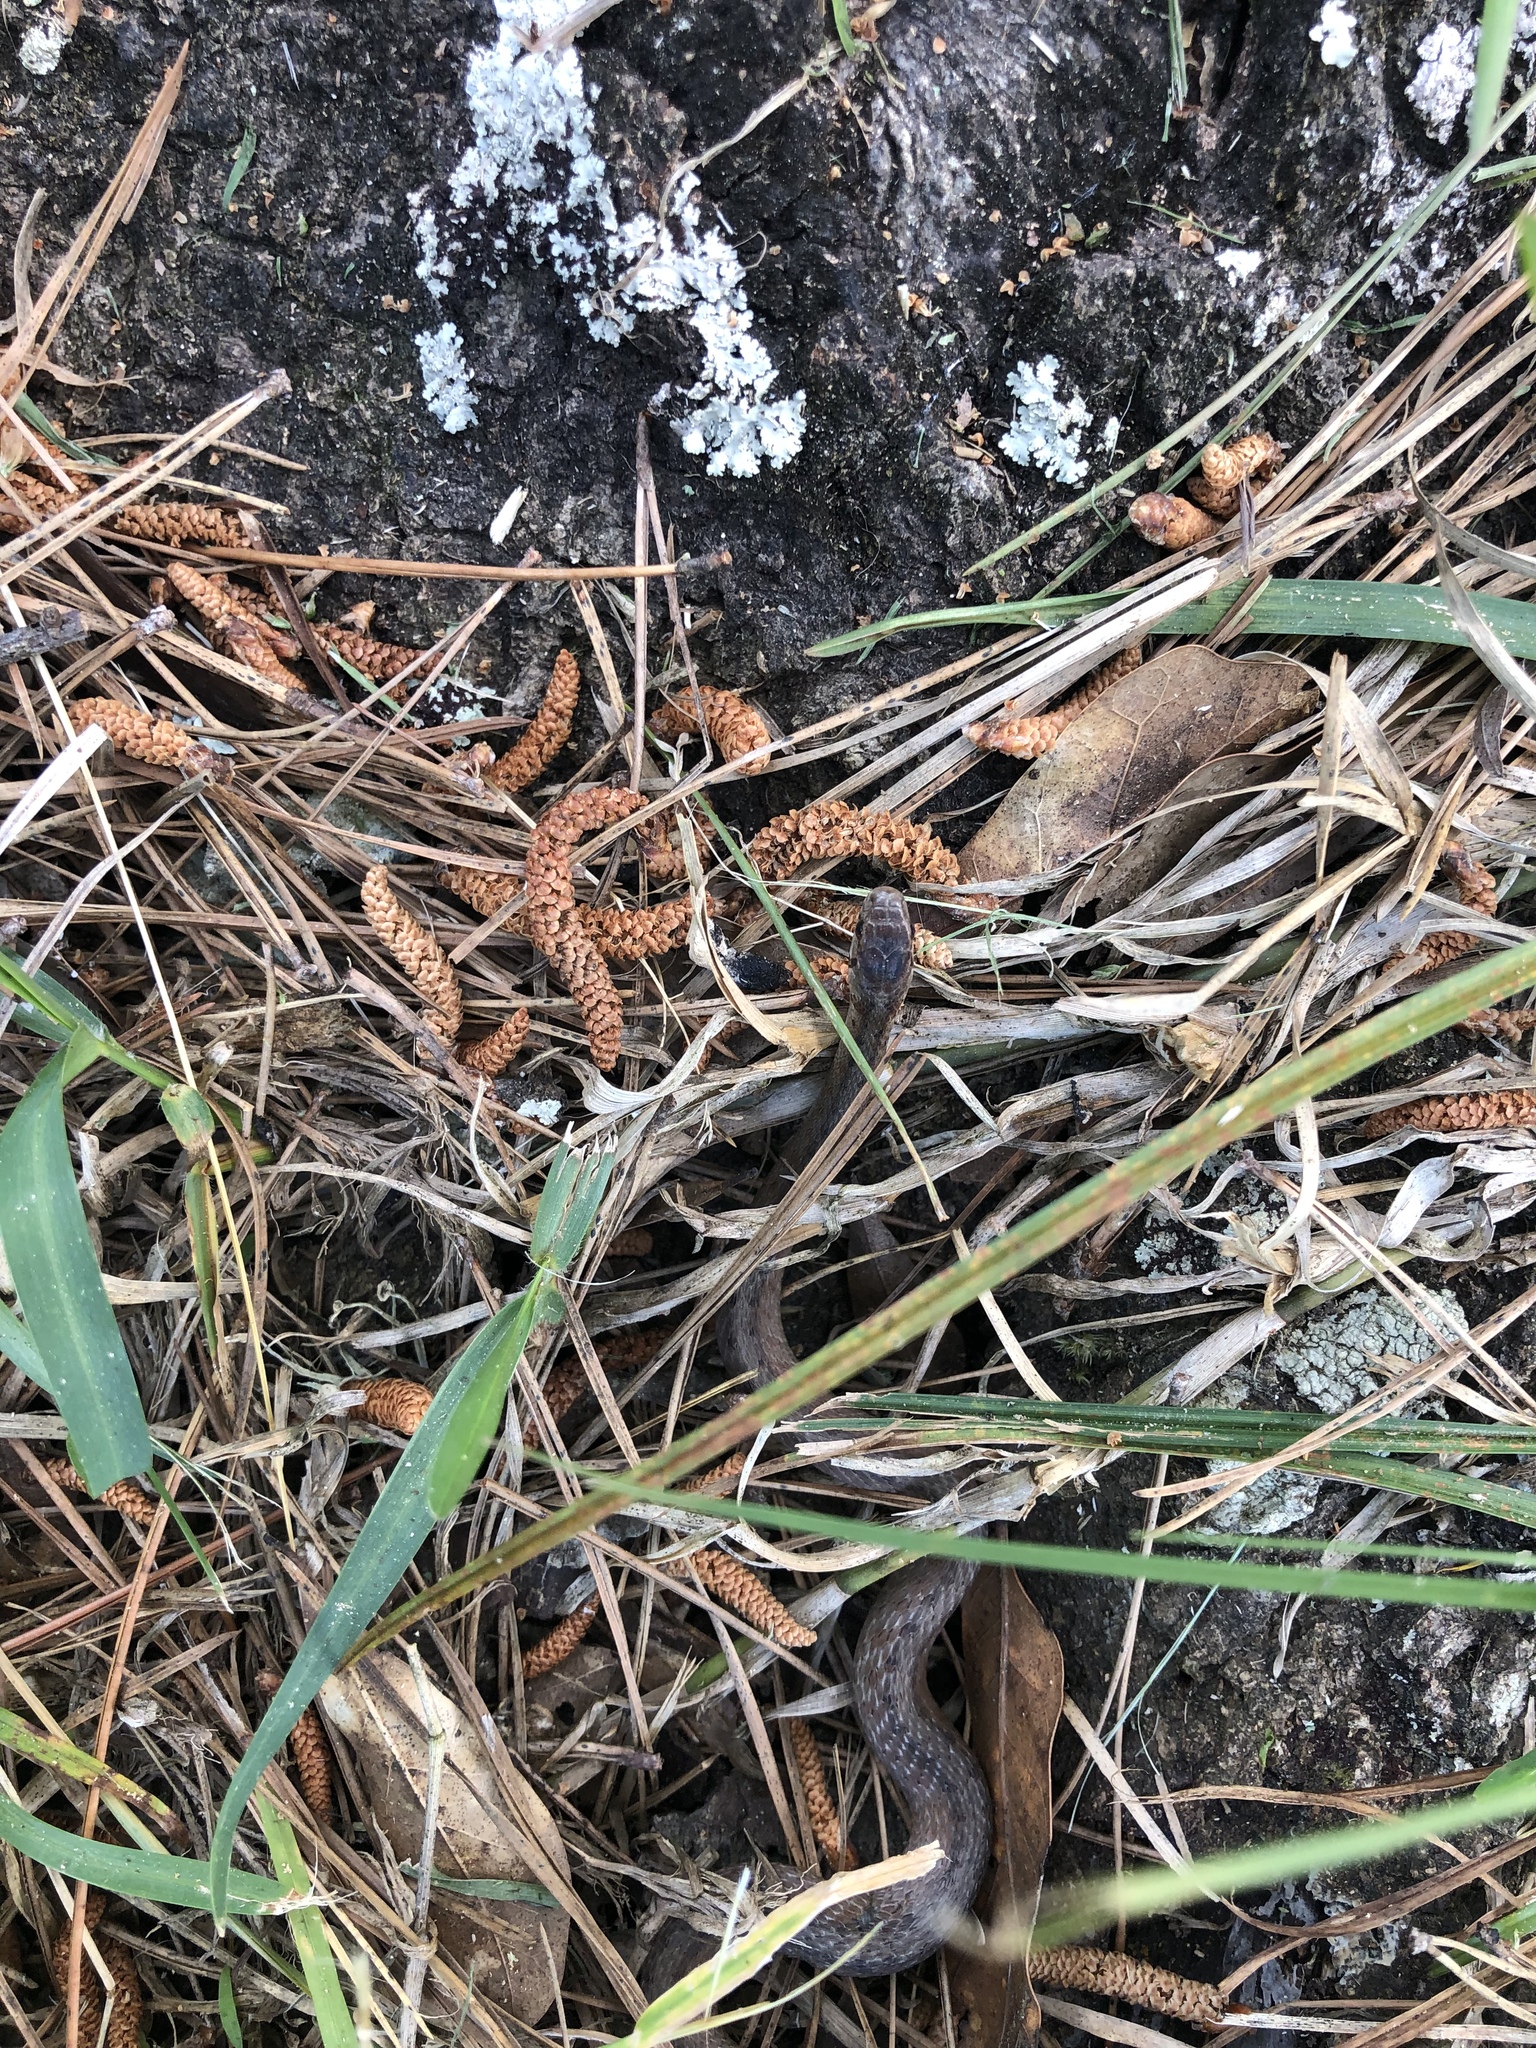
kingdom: Animalia
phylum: Chordata
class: Squamata
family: Colubridae
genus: Storeria
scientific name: Storeria dekayi
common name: (dekay’s) brown snake
